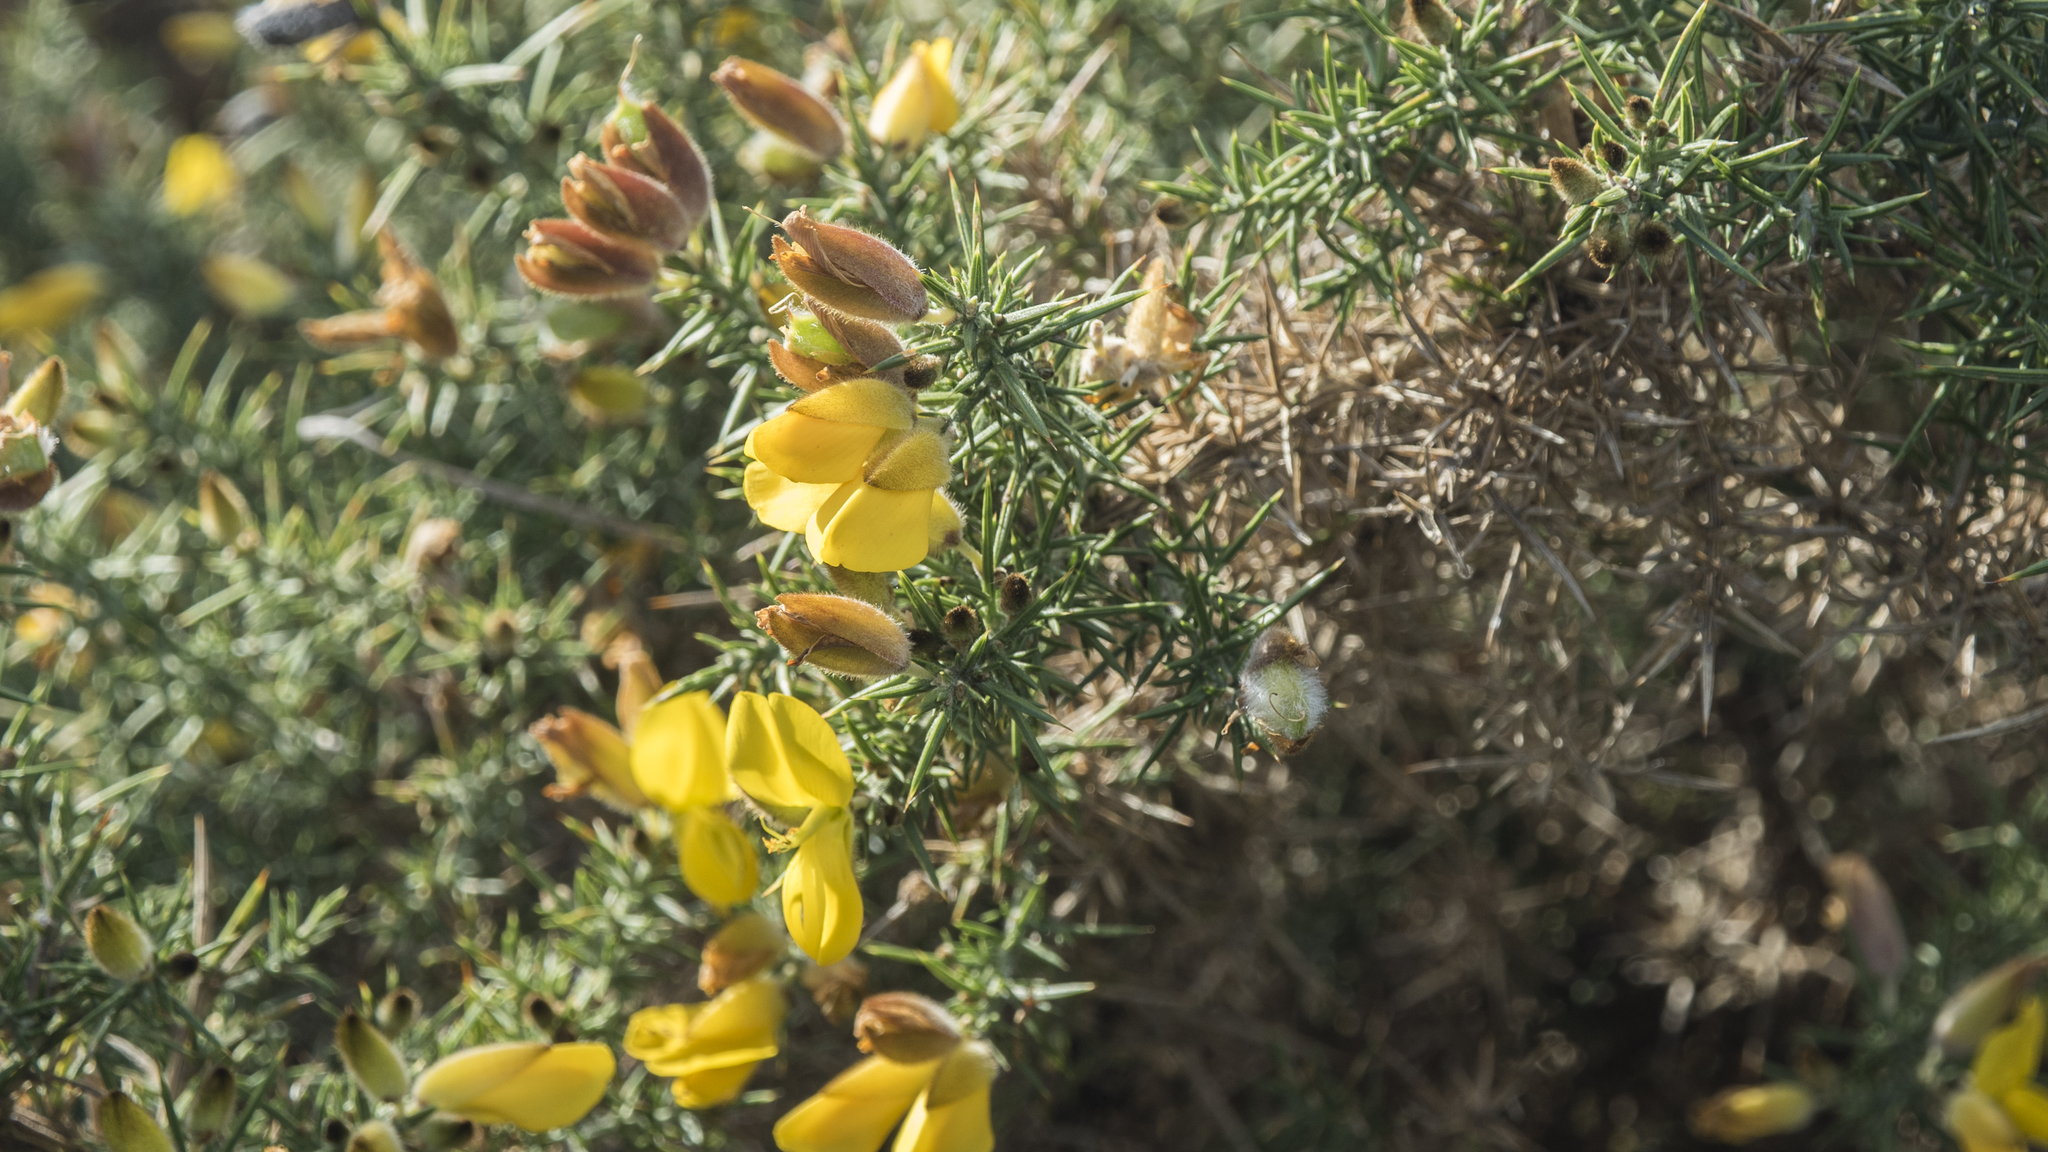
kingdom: Plantae
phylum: Tracheophyta
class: Magnoliopsida
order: Fabales
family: Fabaceae
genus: Ulex
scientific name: Ulex europaeus
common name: Common gorse
